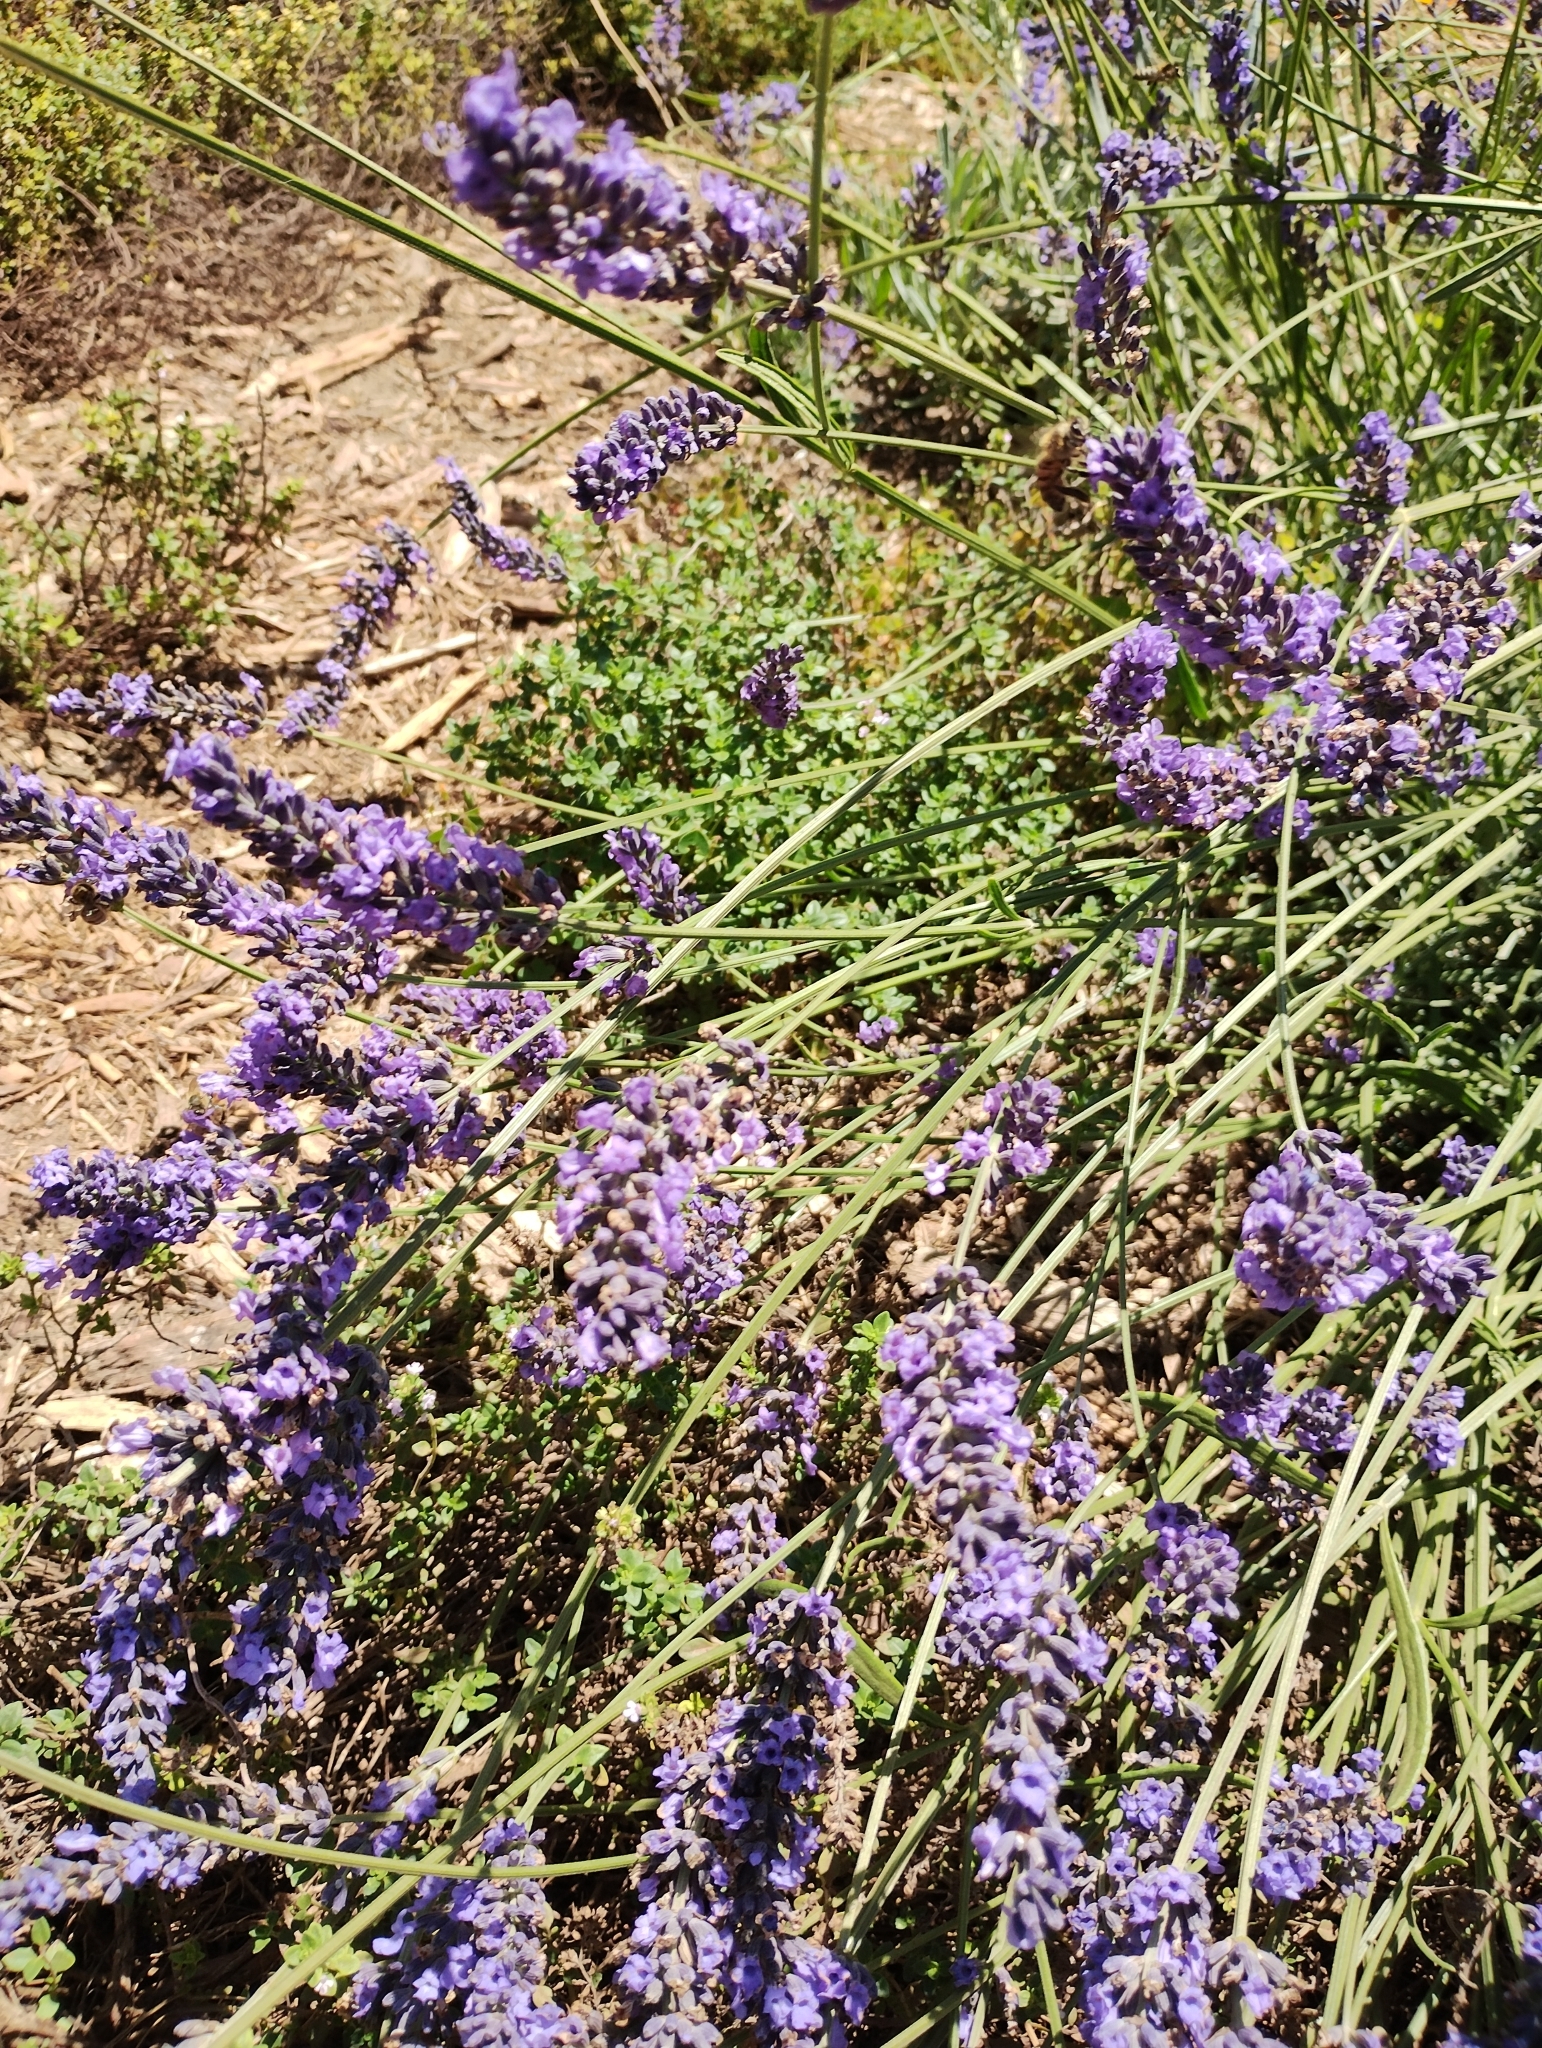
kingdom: Animalia
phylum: Arthropoda
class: Insecta
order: Lepidoptera
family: Pieridae
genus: Pieris
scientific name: Pieris rapae
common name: Small white
